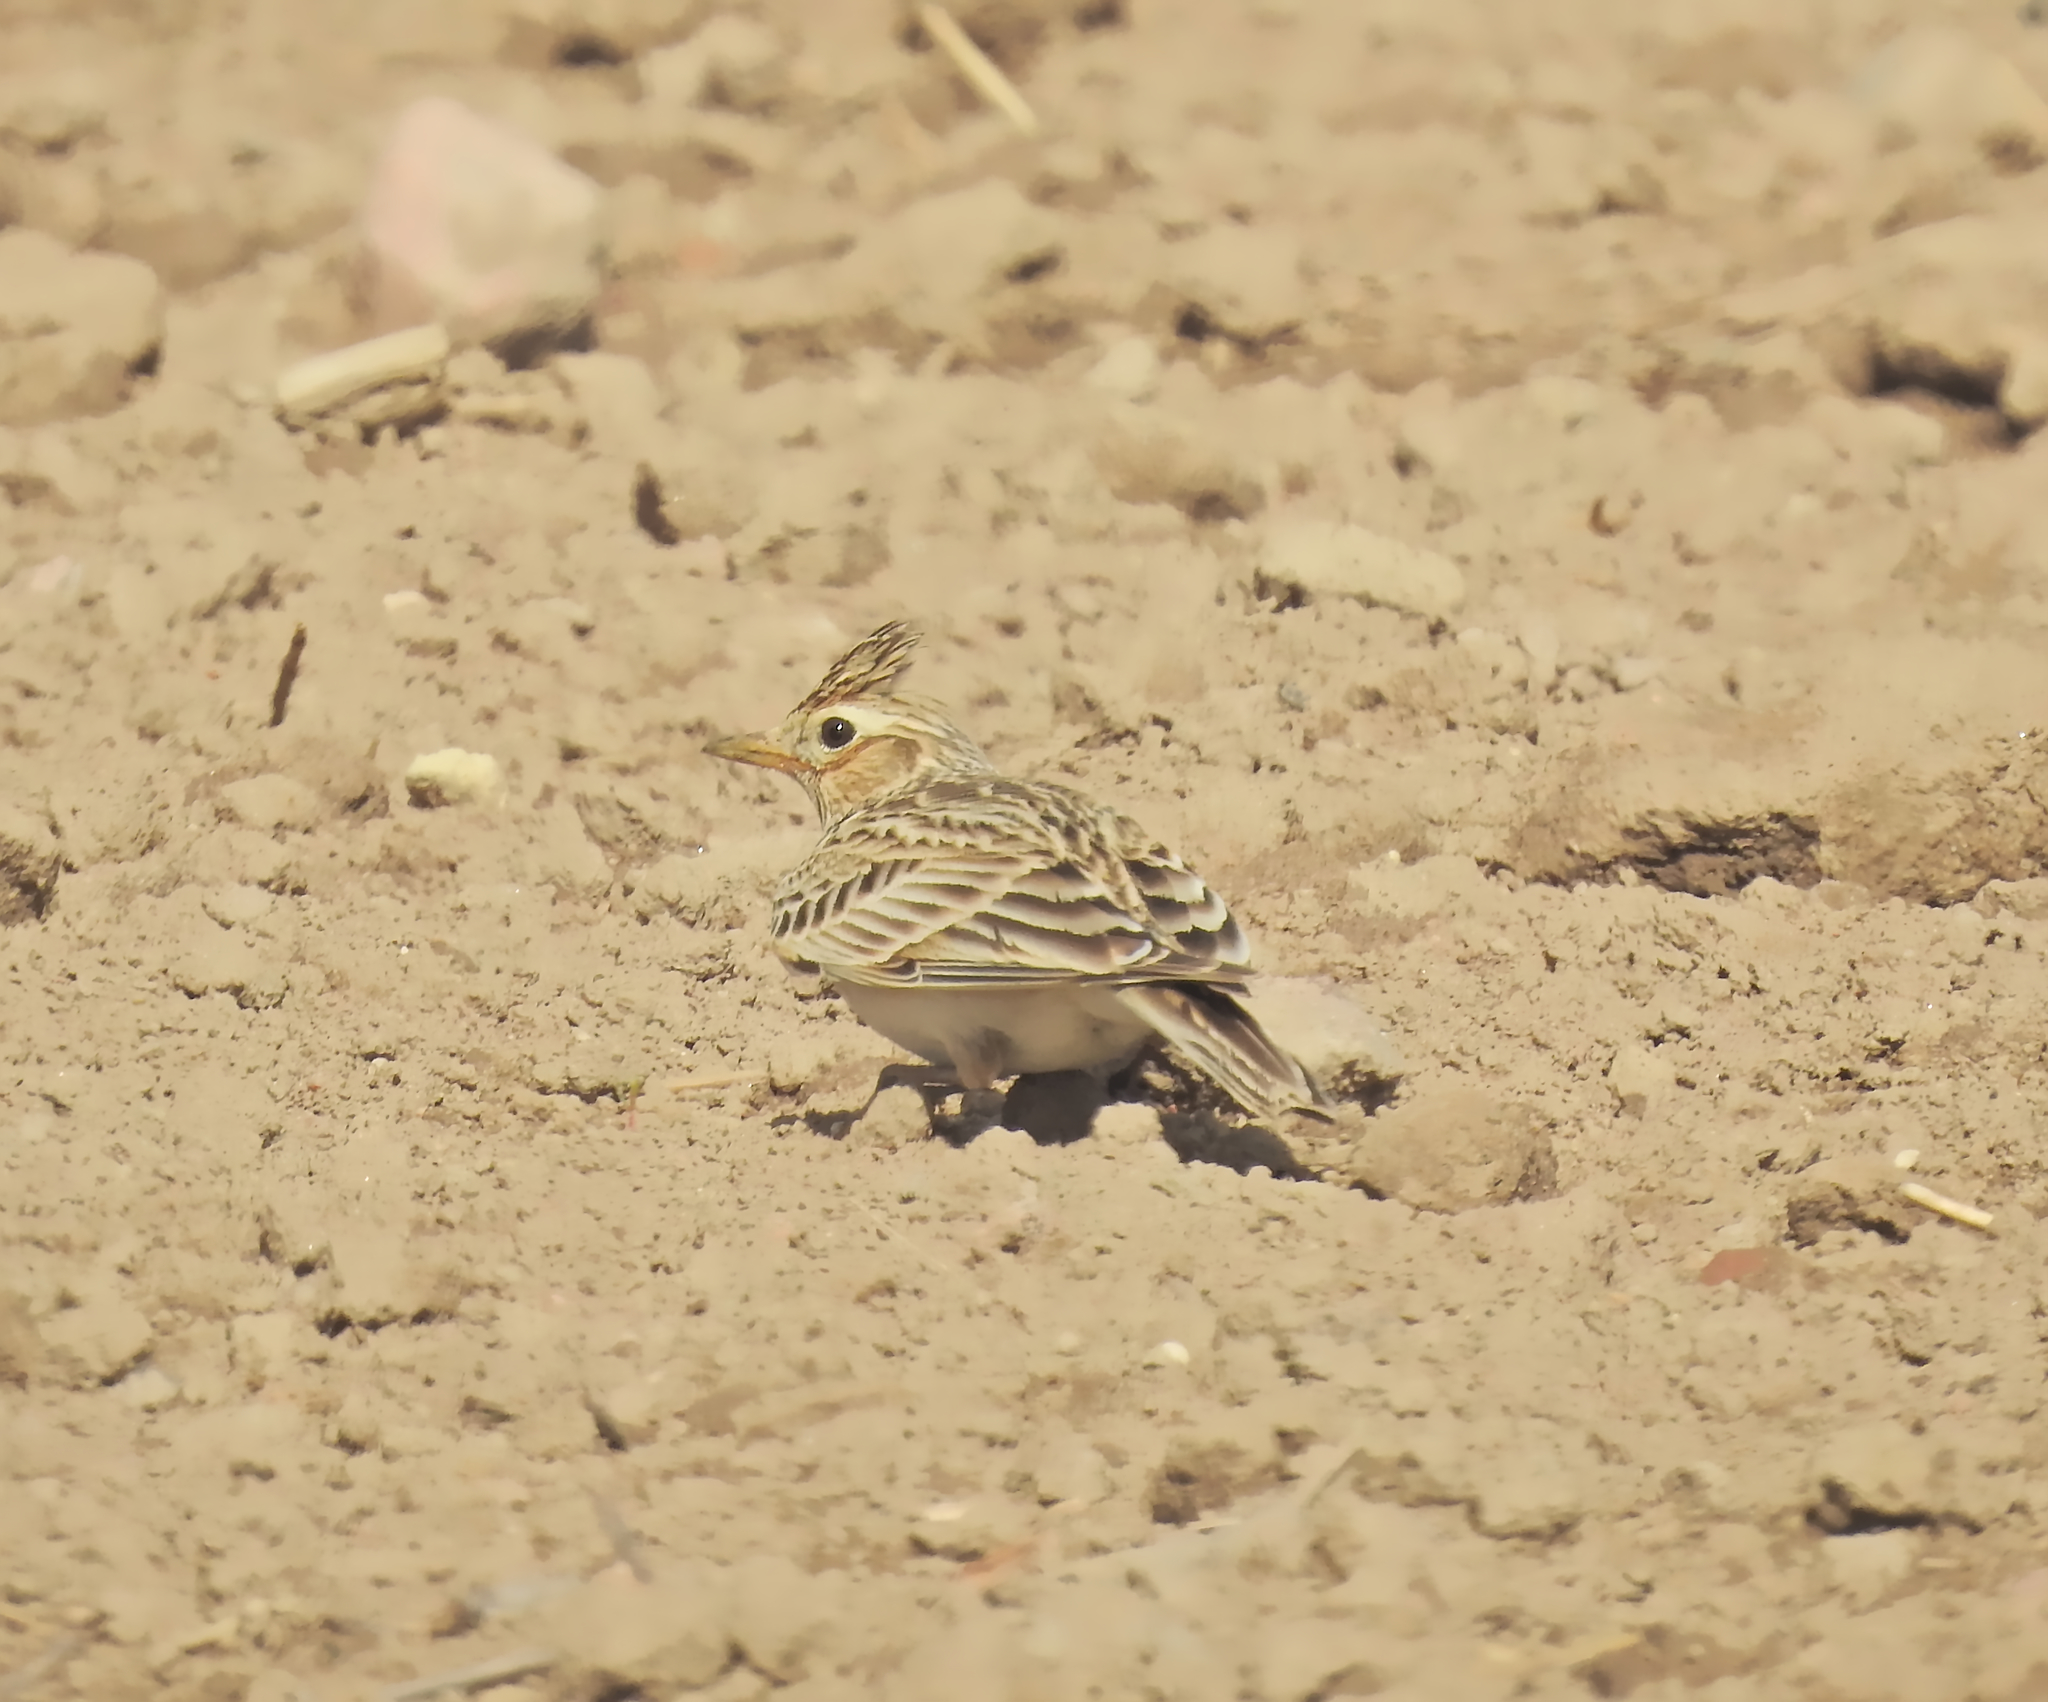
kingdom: Animalia
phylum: Chordata
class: Aves
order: Passeriformes
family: Alaudidae
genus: Alauda
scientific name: Alauda arvensis
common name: Eurasian skylark
